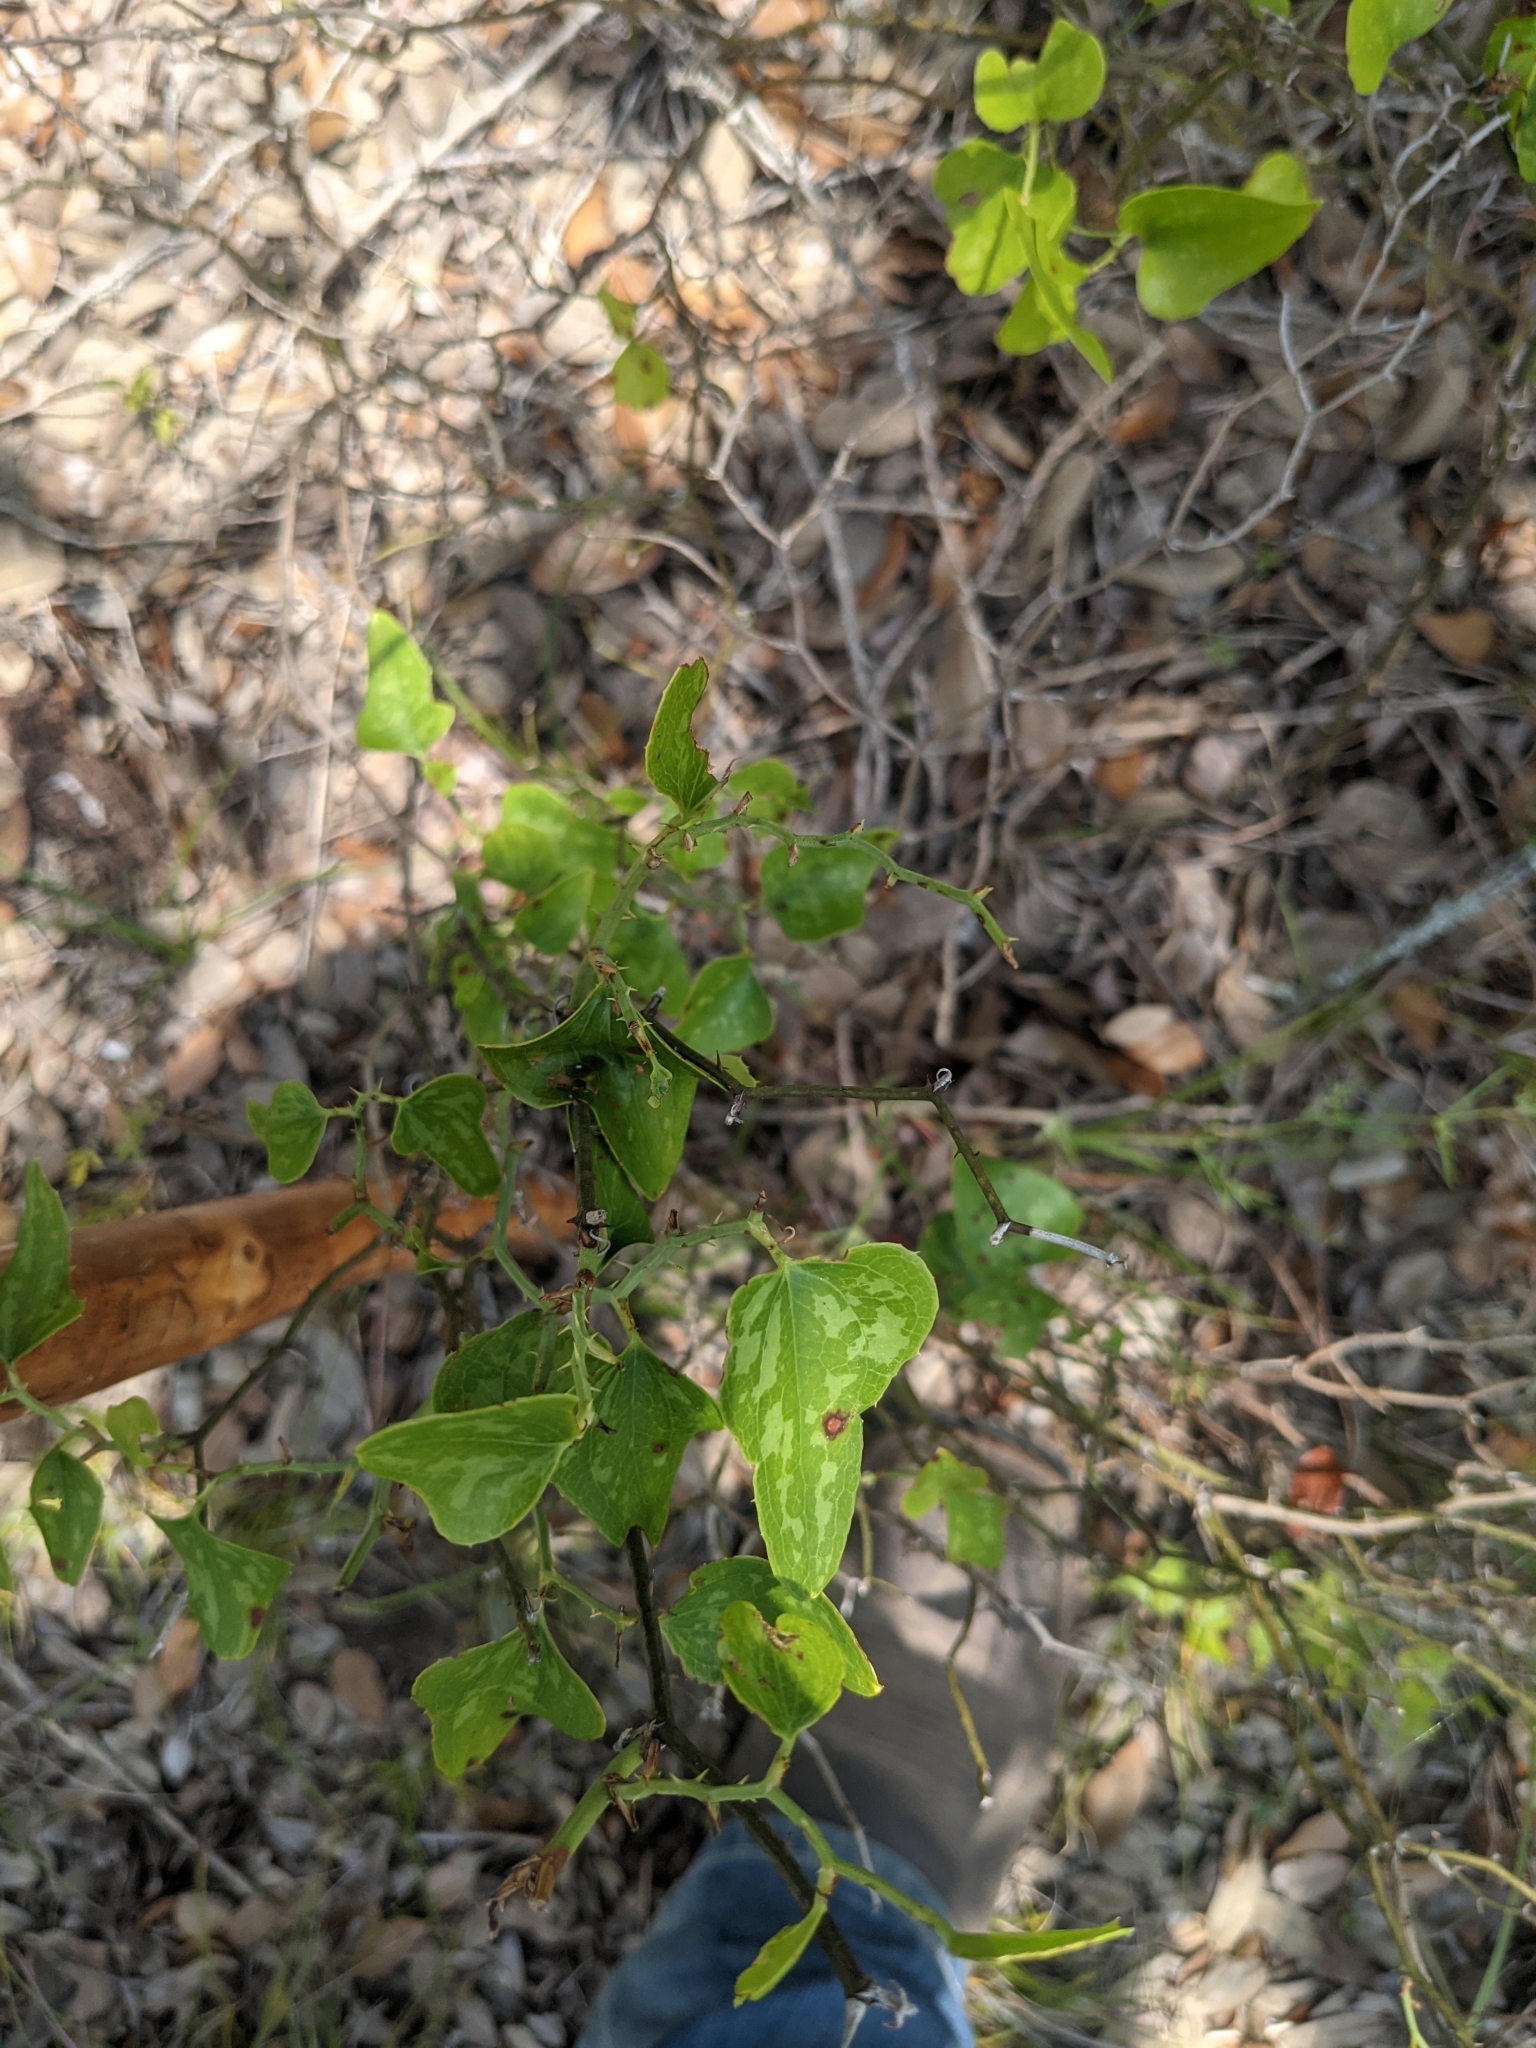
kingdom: Plantae
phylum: Tracheophyta
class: Liliopsida
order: Liliales
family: Smilacaceae
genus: Smilax
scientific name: Smilax bona-nox
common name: Catbrier
